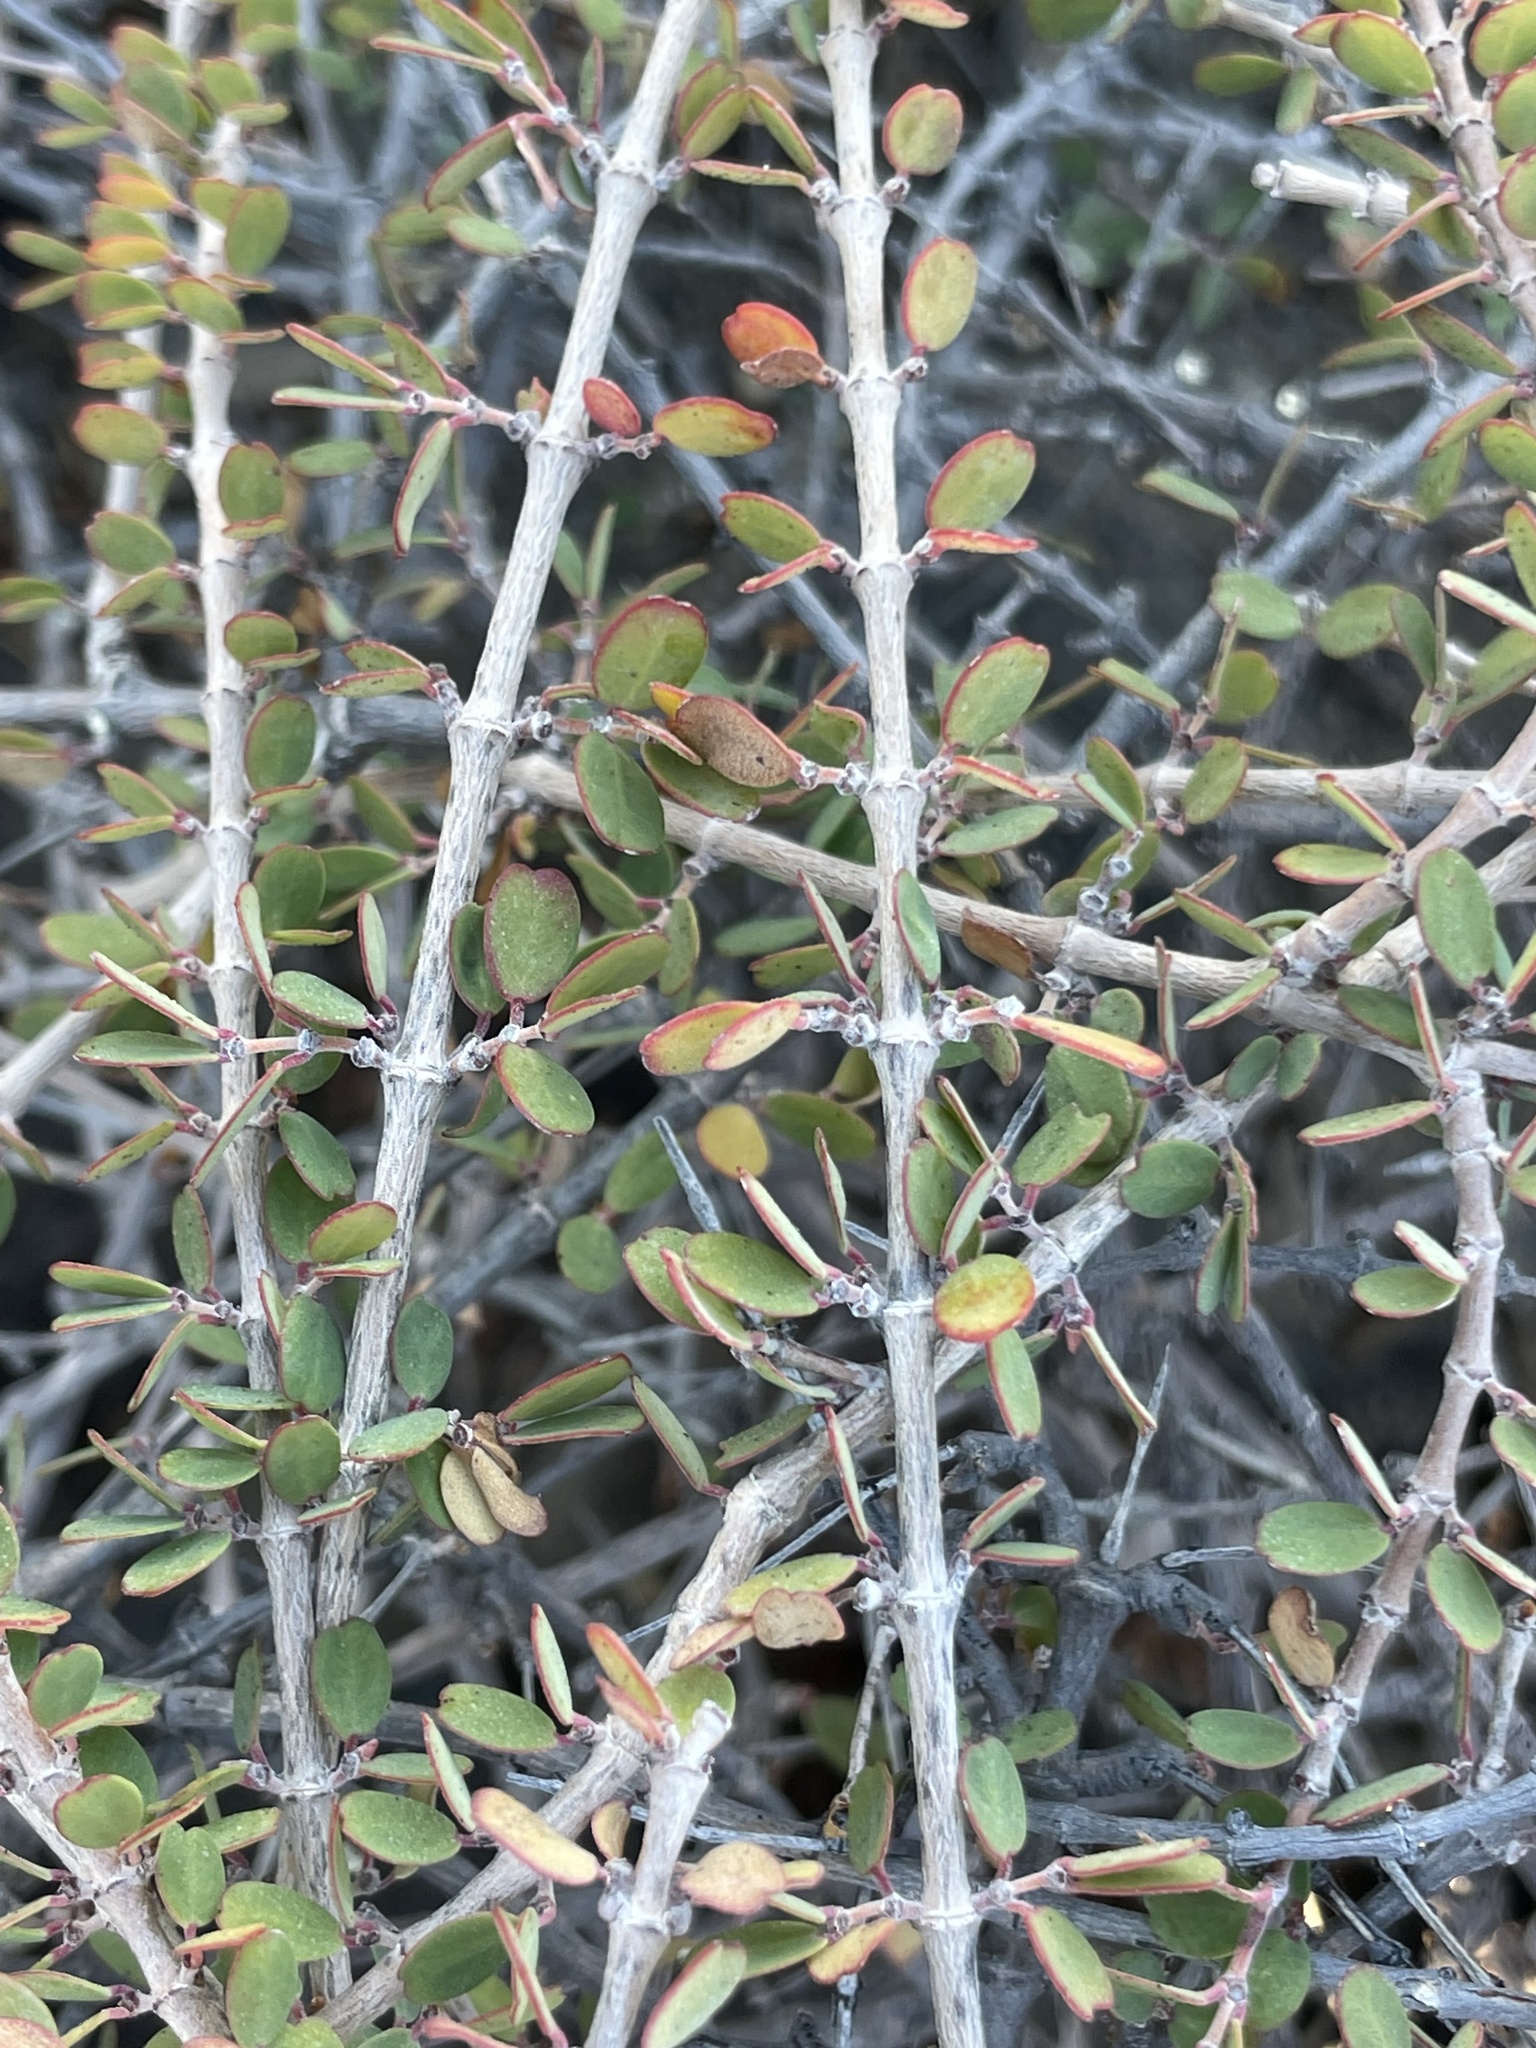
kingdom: Plantae
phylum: Tracheophyta
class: Magnoliopsida
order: Malpighiales
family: Euphorbiaceae
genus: Euphorbia
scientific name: Euphorbia magdalenae
